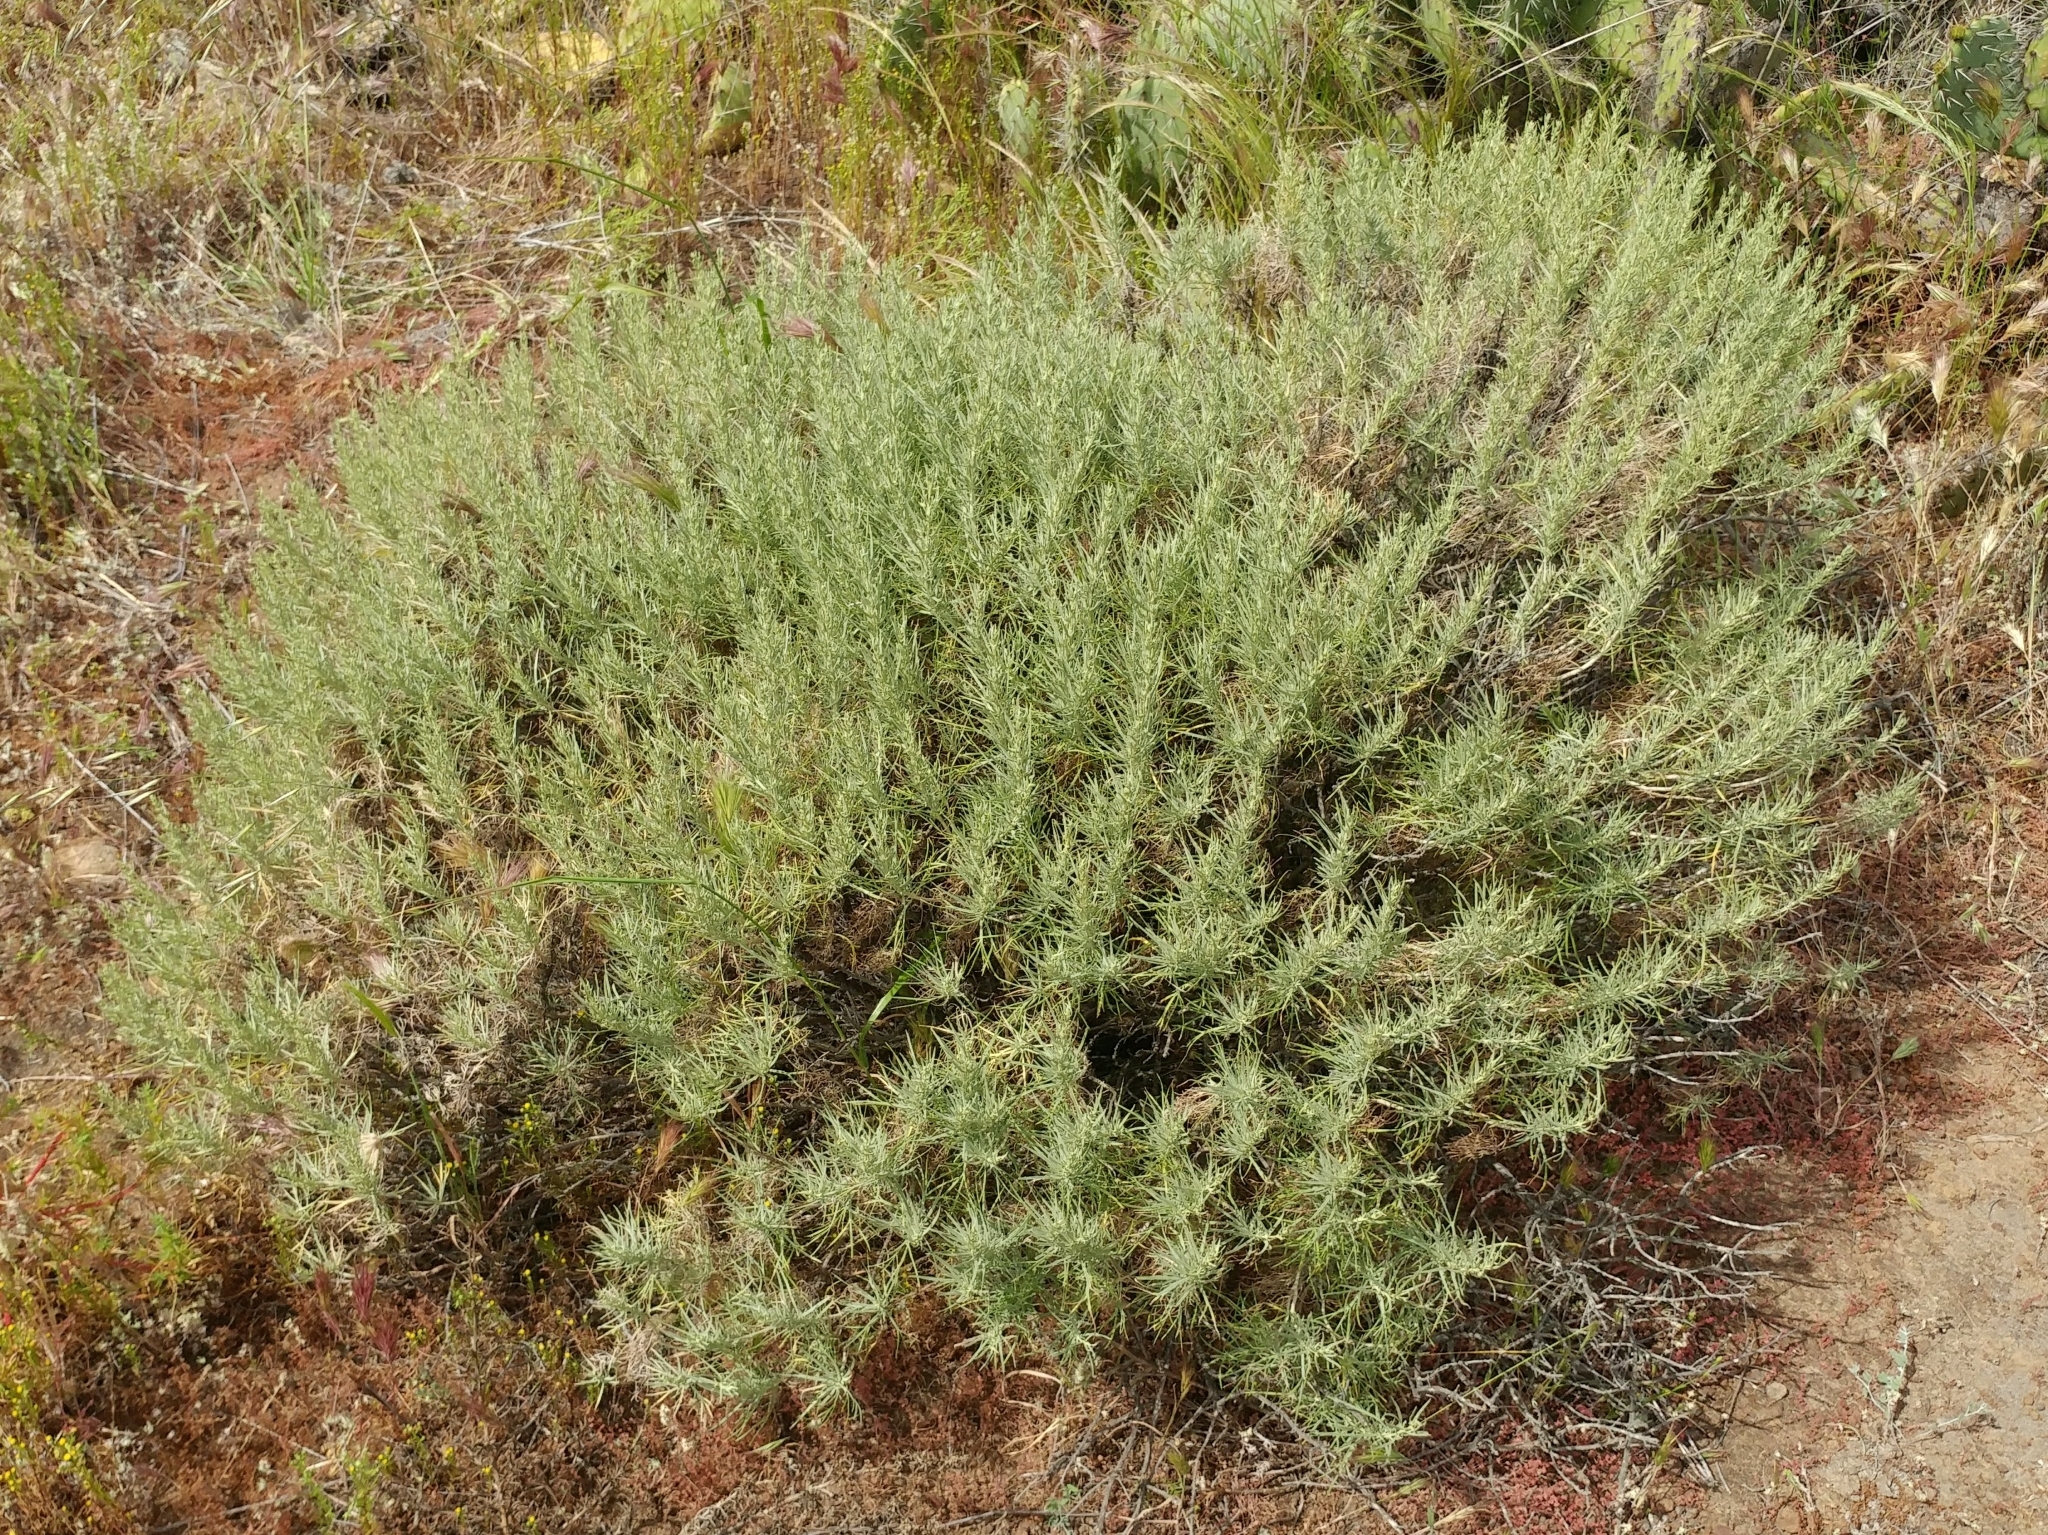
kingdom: Plantae
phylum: Tracheophyta
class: Magnoliopsida
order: Asterales
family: Asteraceae
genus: Artemisia
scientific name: Artemisia californica
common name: California sagebrush
